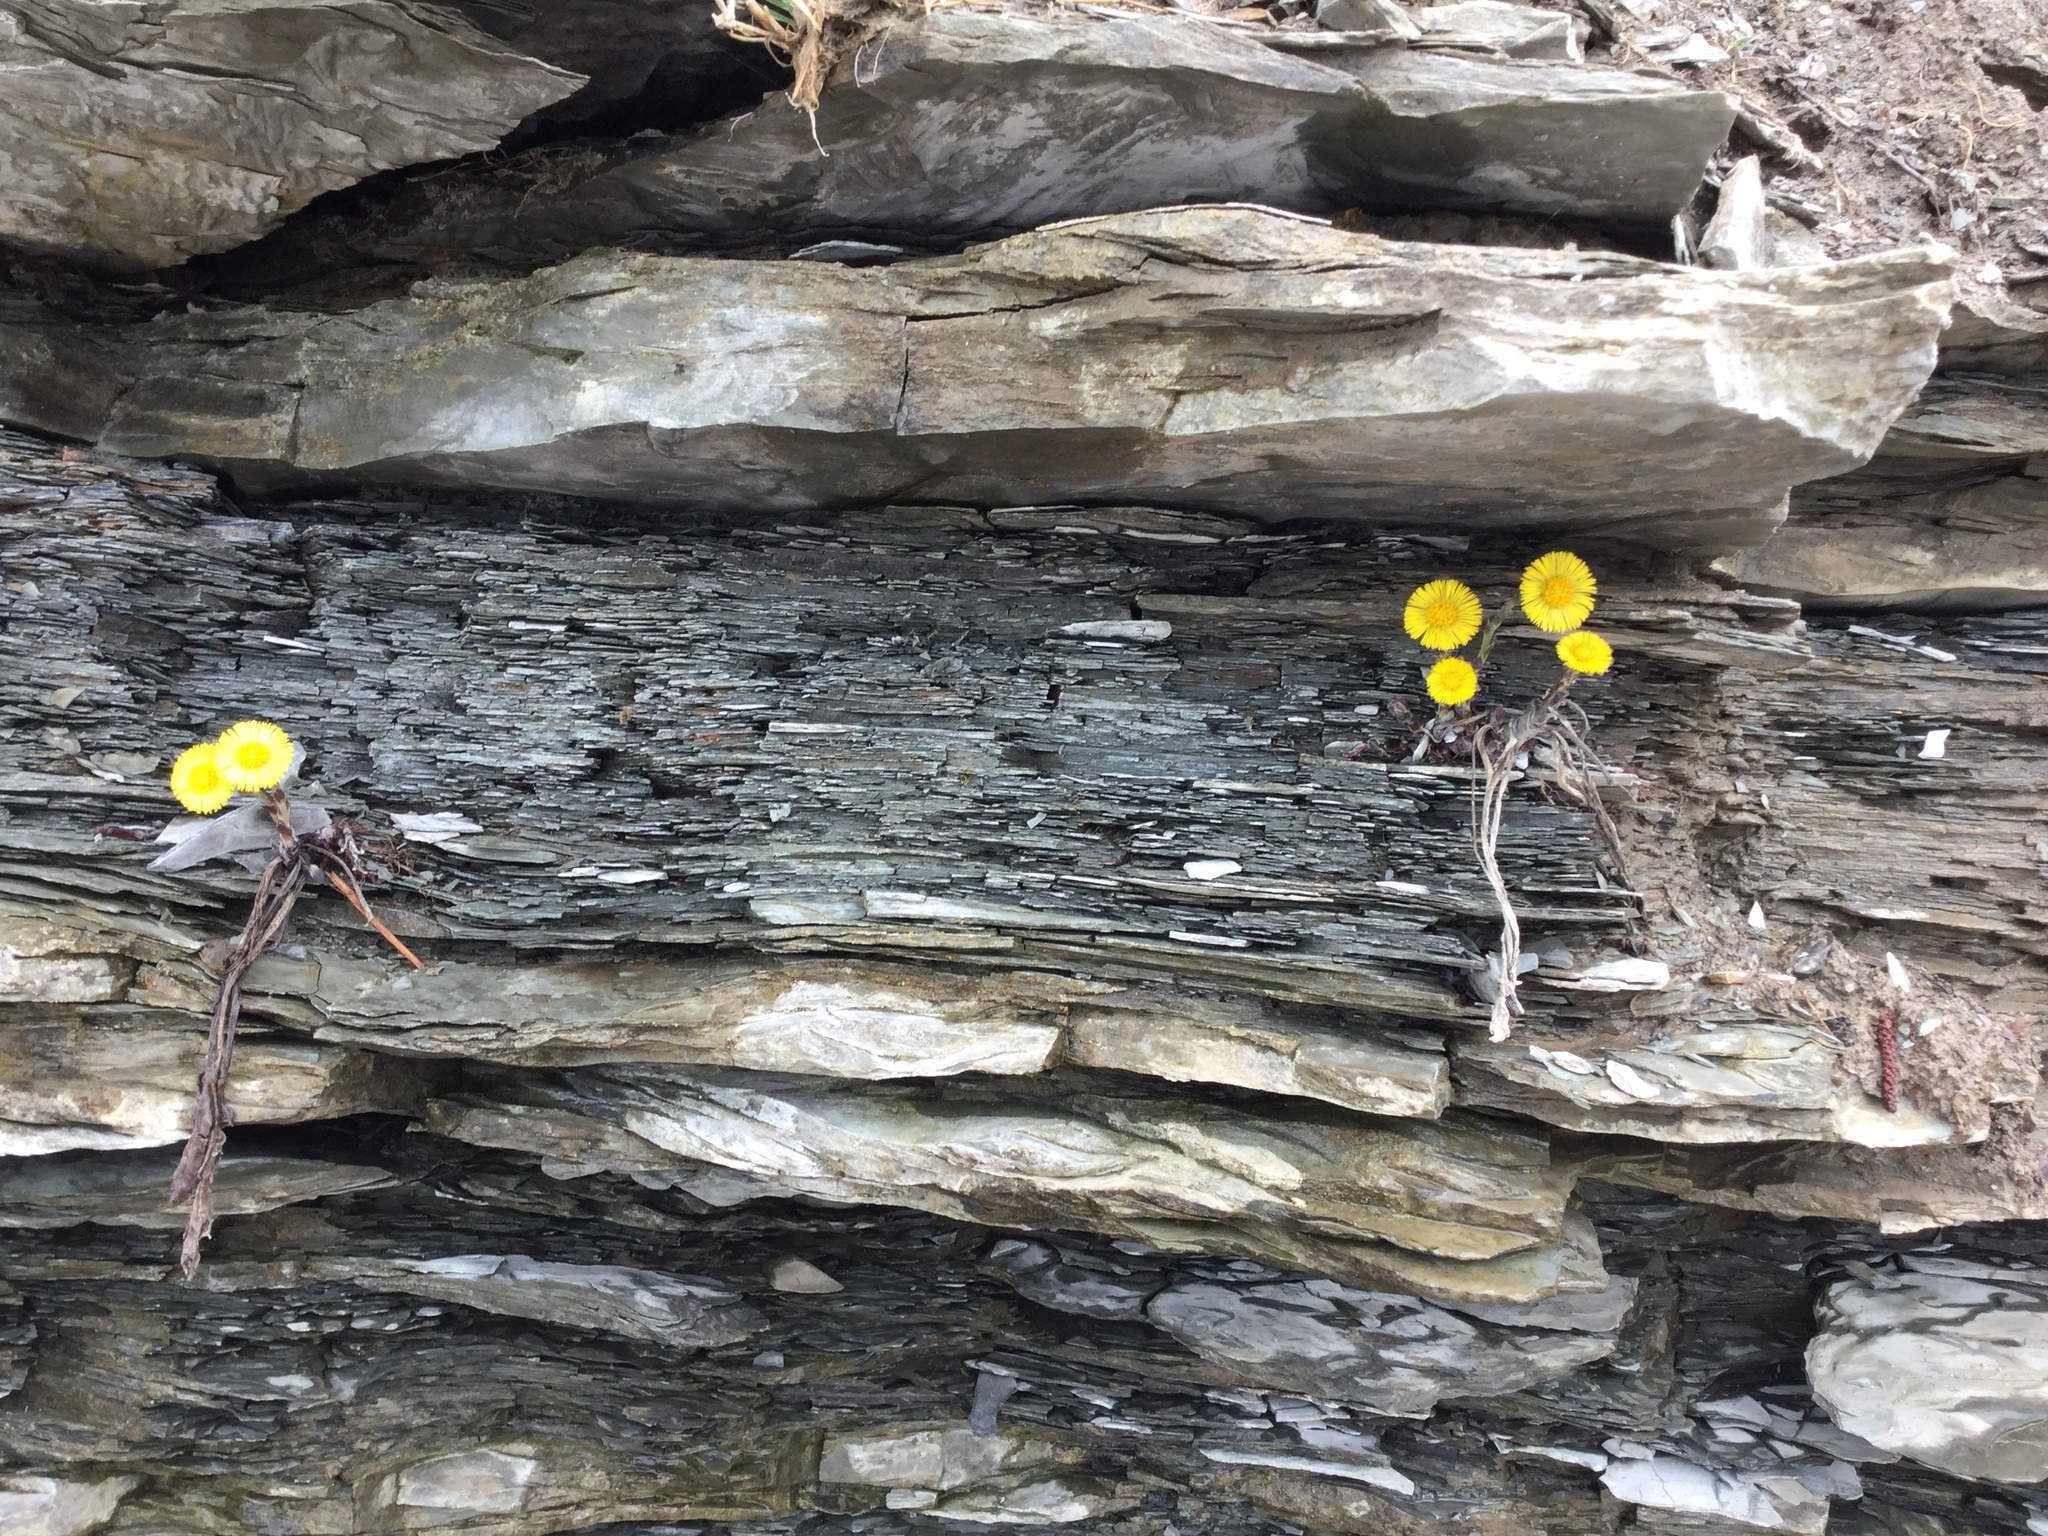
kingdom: Plantae
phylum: Tracheophyta
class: Magnoliopsida
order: Asterales
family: Asteraceae
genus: Tussilago
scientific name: Tussilago farfara
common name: Coltsfoot
